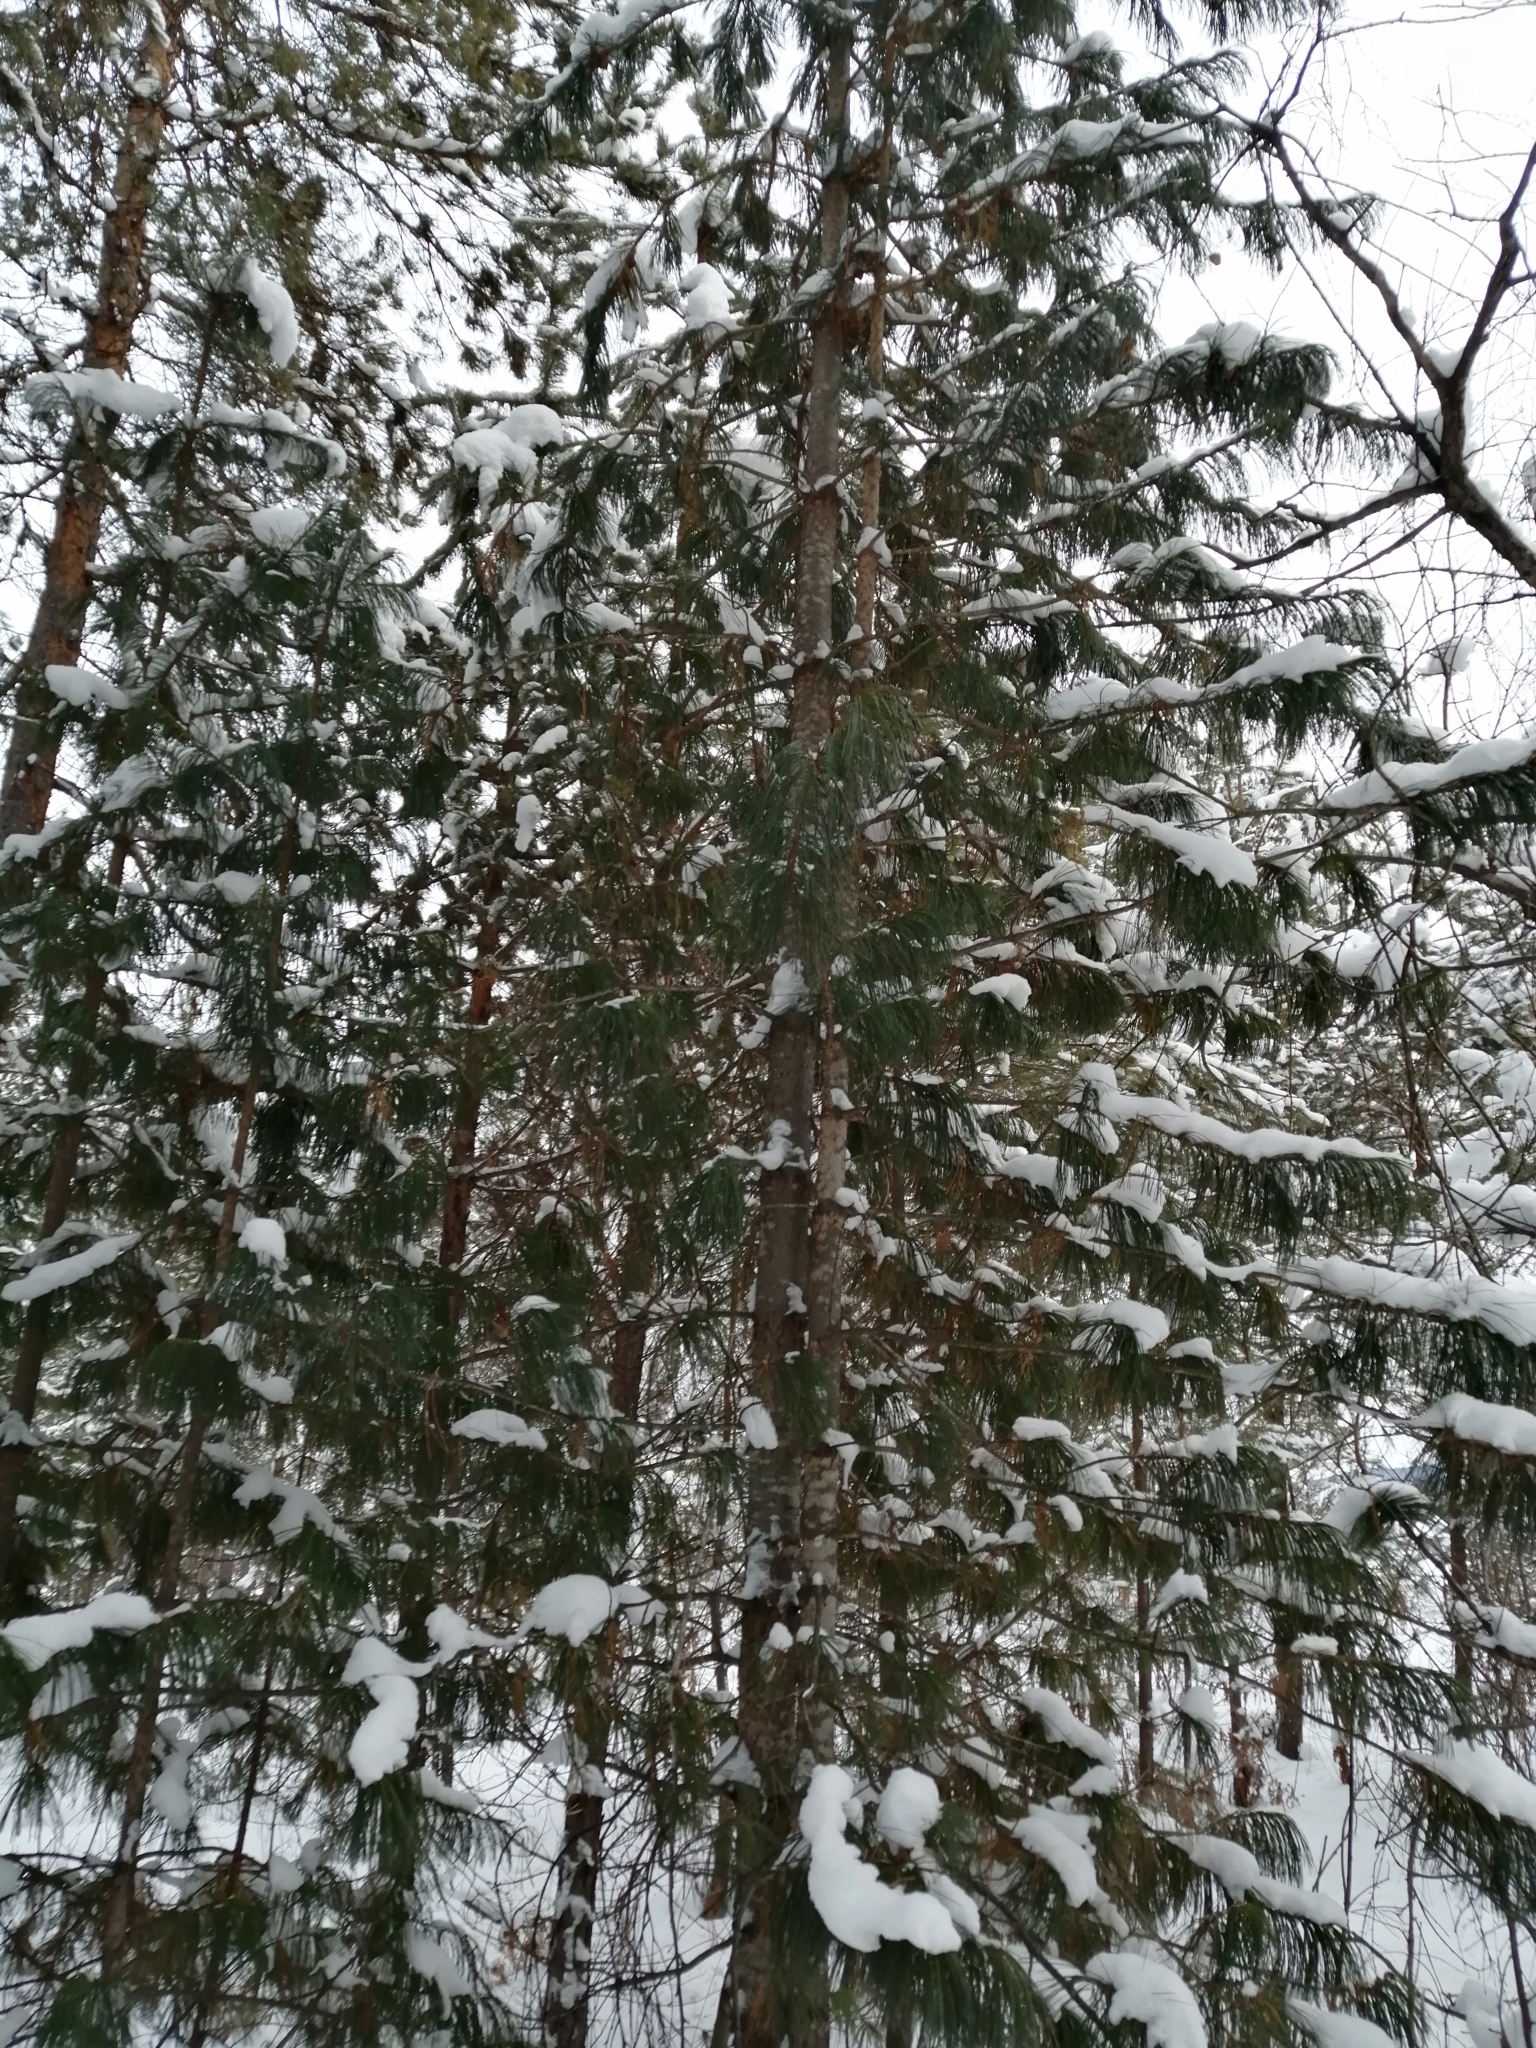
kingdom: Plantae
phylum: Tracheophyta
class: Pinopsida
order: Pinales
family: Pinaceae
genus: Pinus
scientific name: Pinus sibirica
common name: Siberian pine
